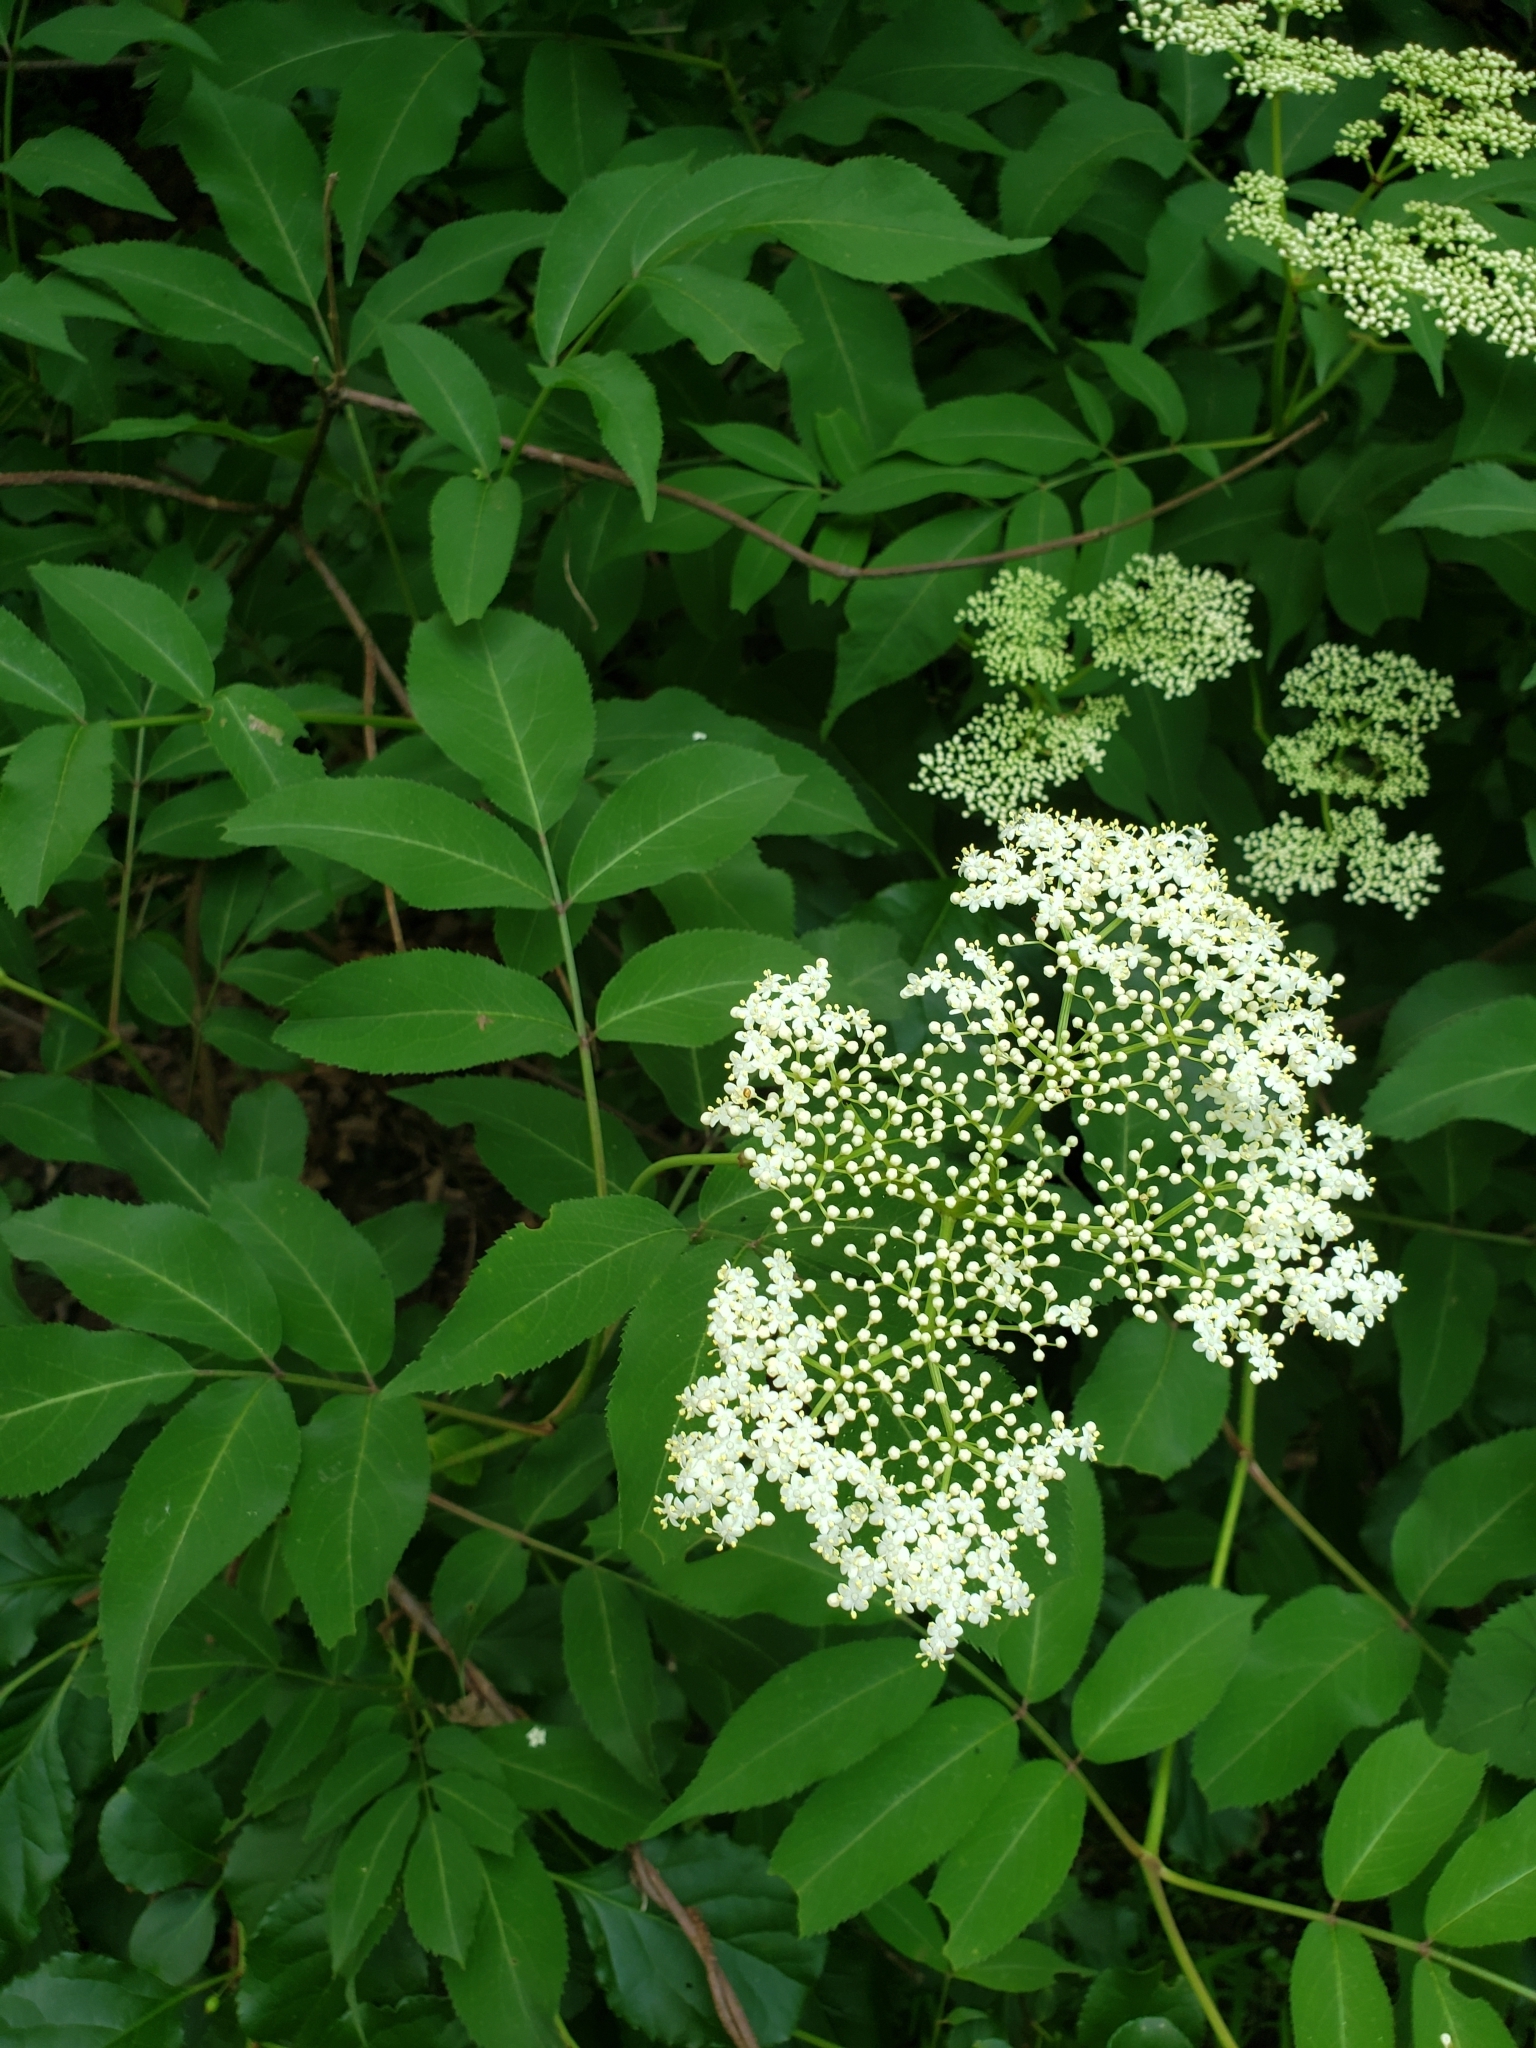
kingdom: Plantae
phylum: Tracheophyta
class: Magnoliopsida
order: Dipsacales
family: Viburnaceae
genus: Sambucus
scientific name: Sambucus canadensis
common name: American elder
